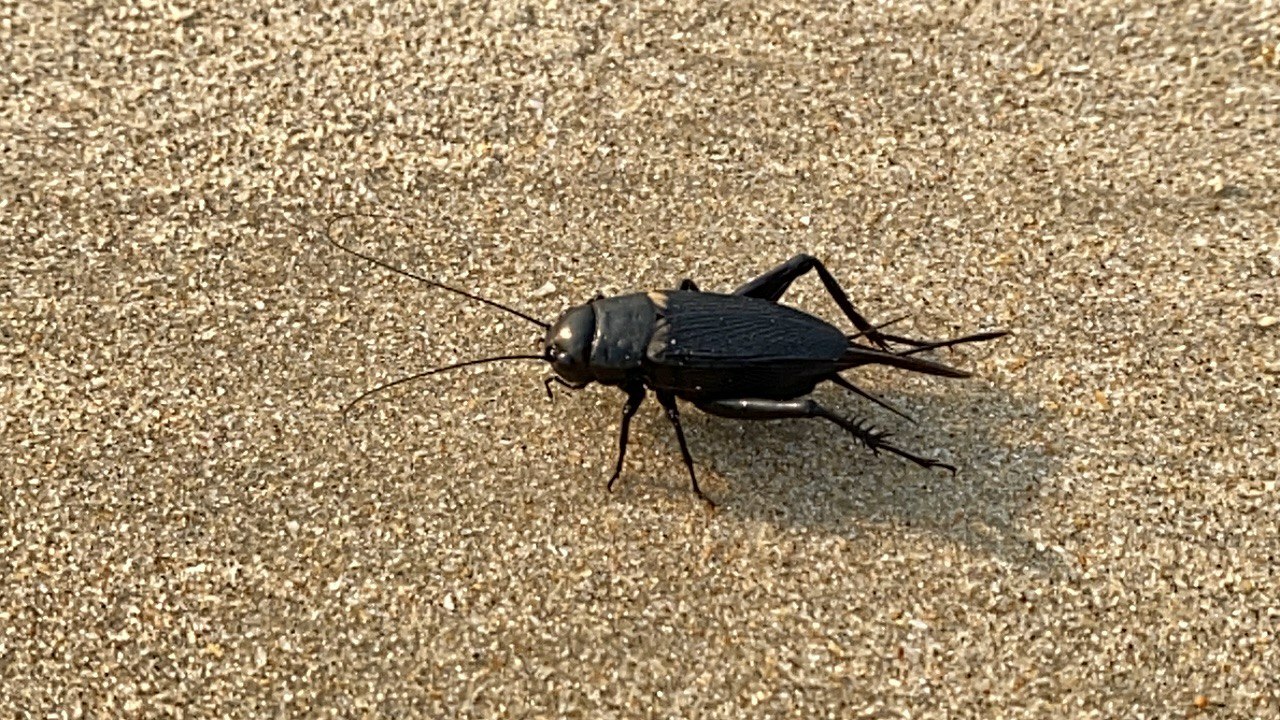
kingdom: Animalia
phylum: Arthropoda
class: Insecta
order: Orthoptera
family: Gryllidae
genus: Gryllus
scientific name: Gryllus bimaculatus
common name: Two-spotted cricket
